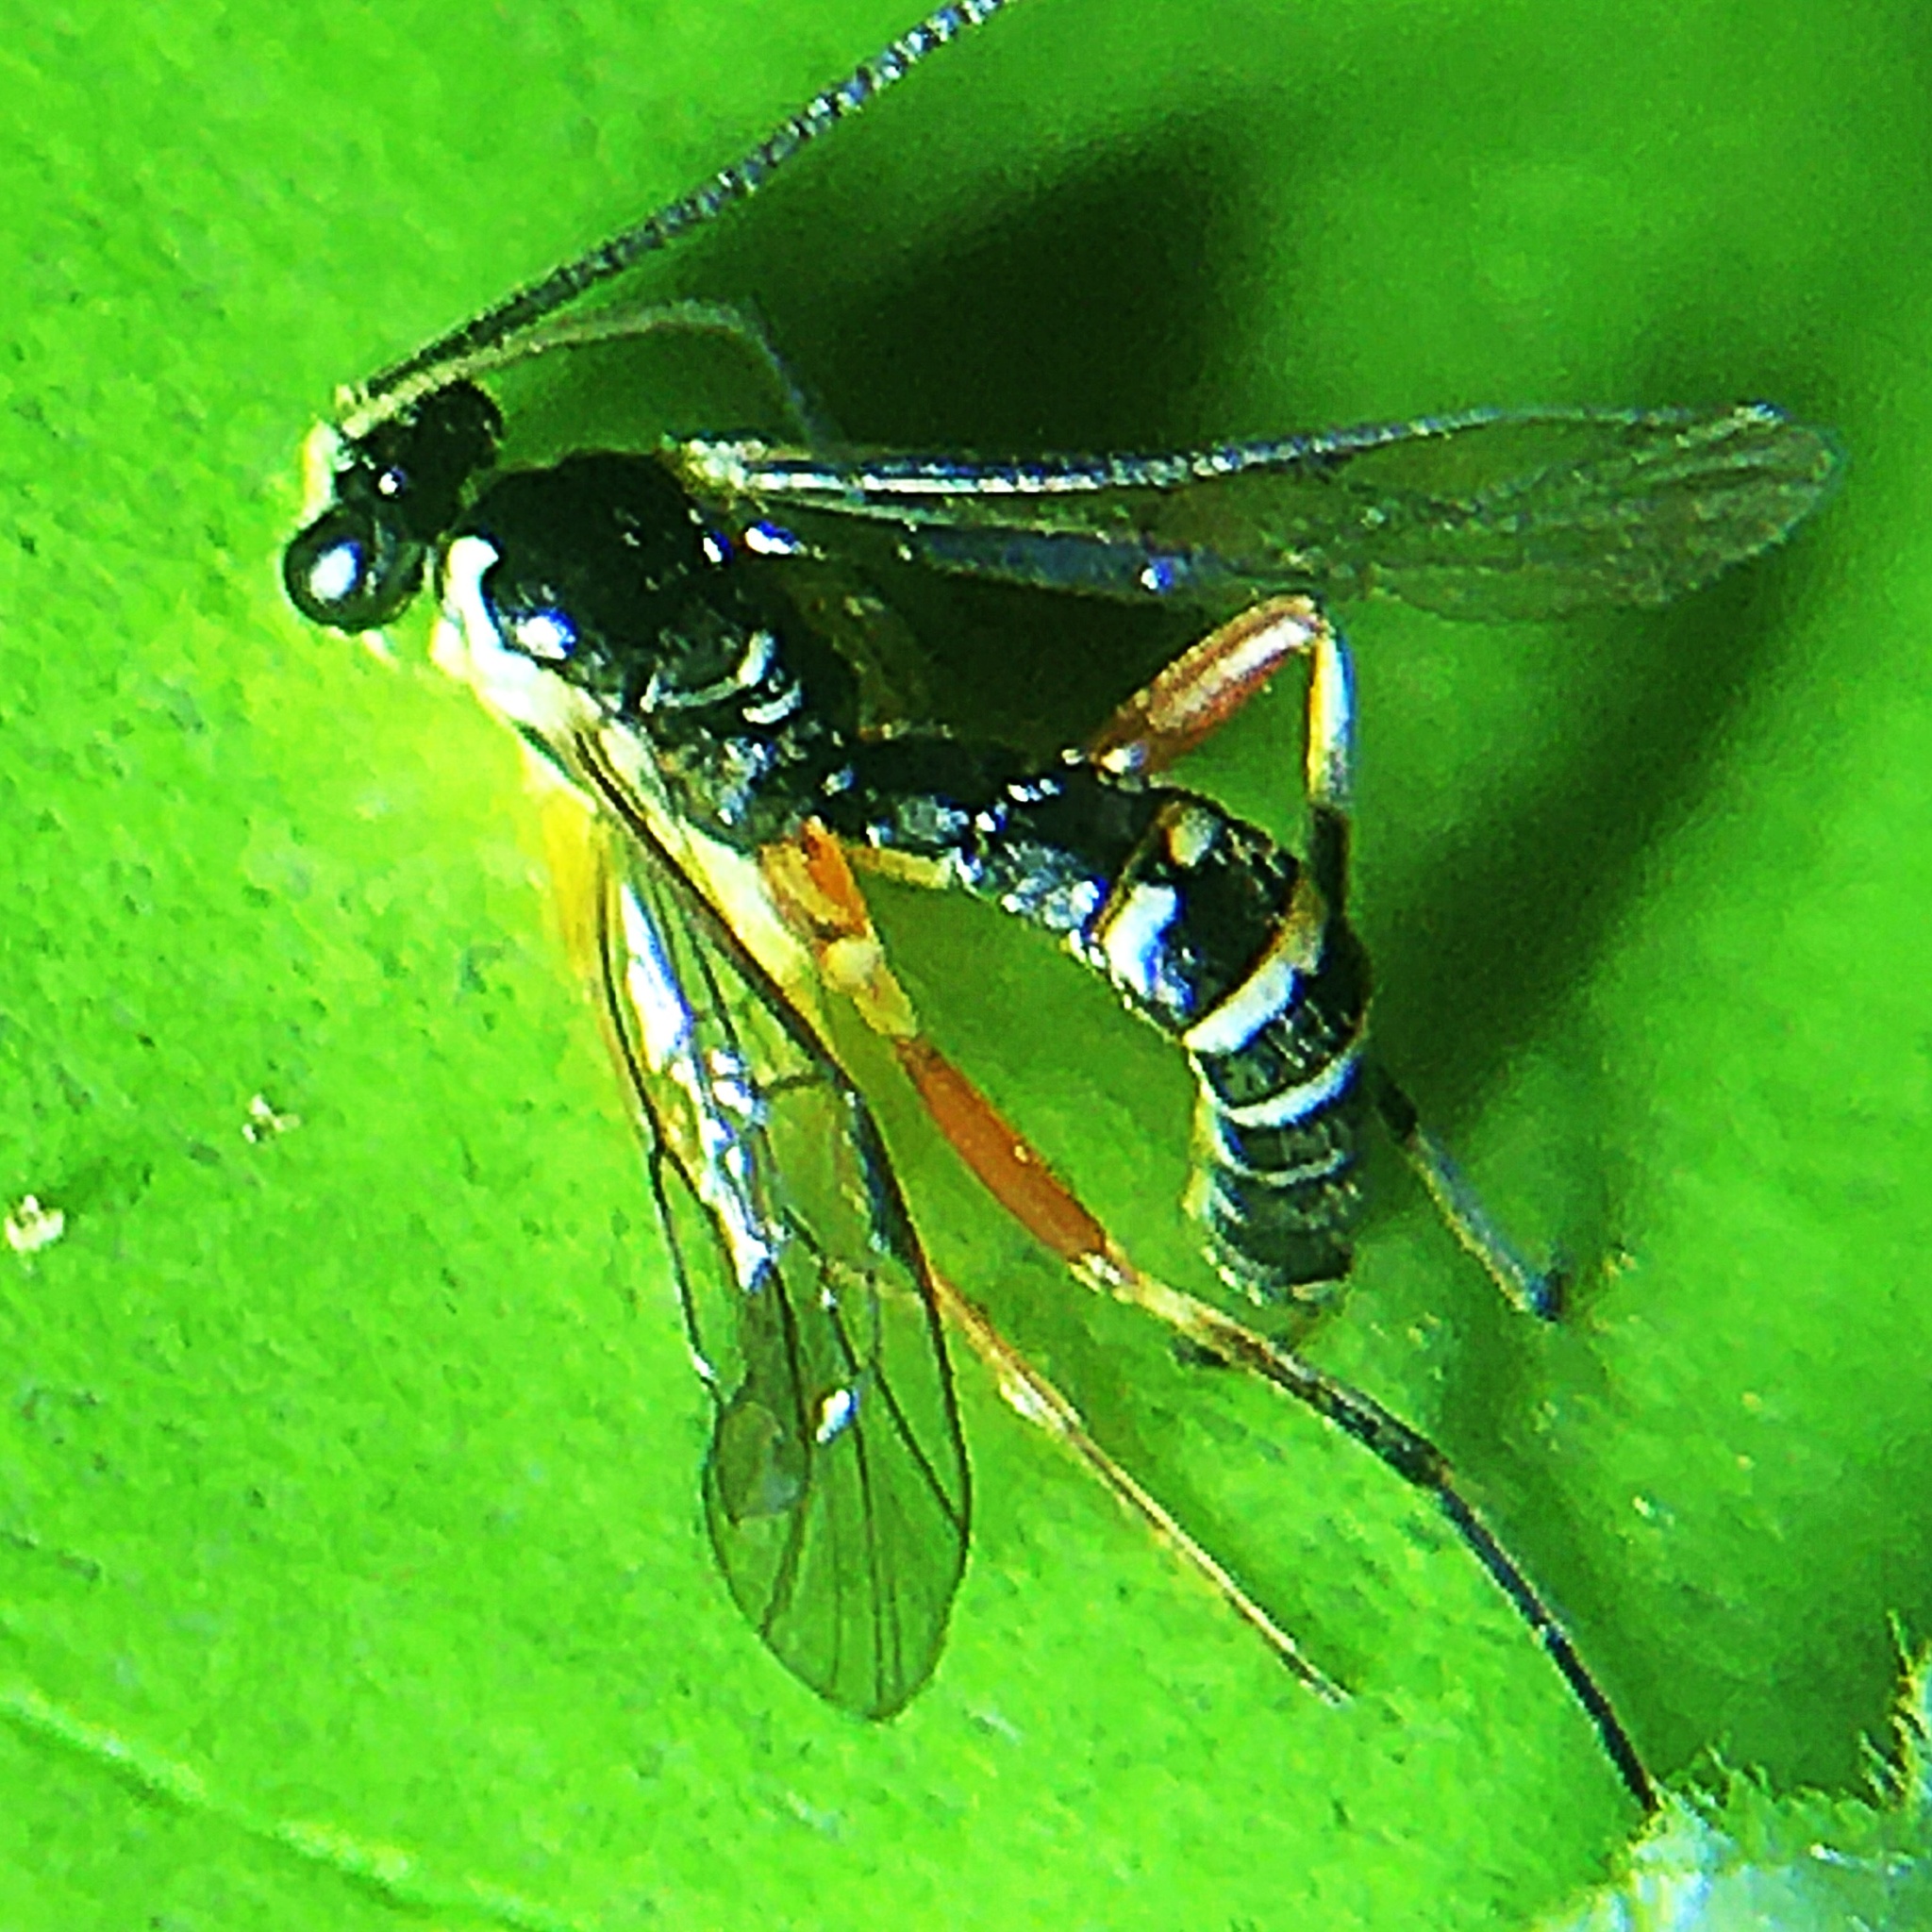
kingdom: Animalia
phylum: Arthropoda
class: Insecta
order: Hymenoptera
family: Ichneumonidae
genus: Coleocentrus
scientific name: Coleocentrus flavipes
